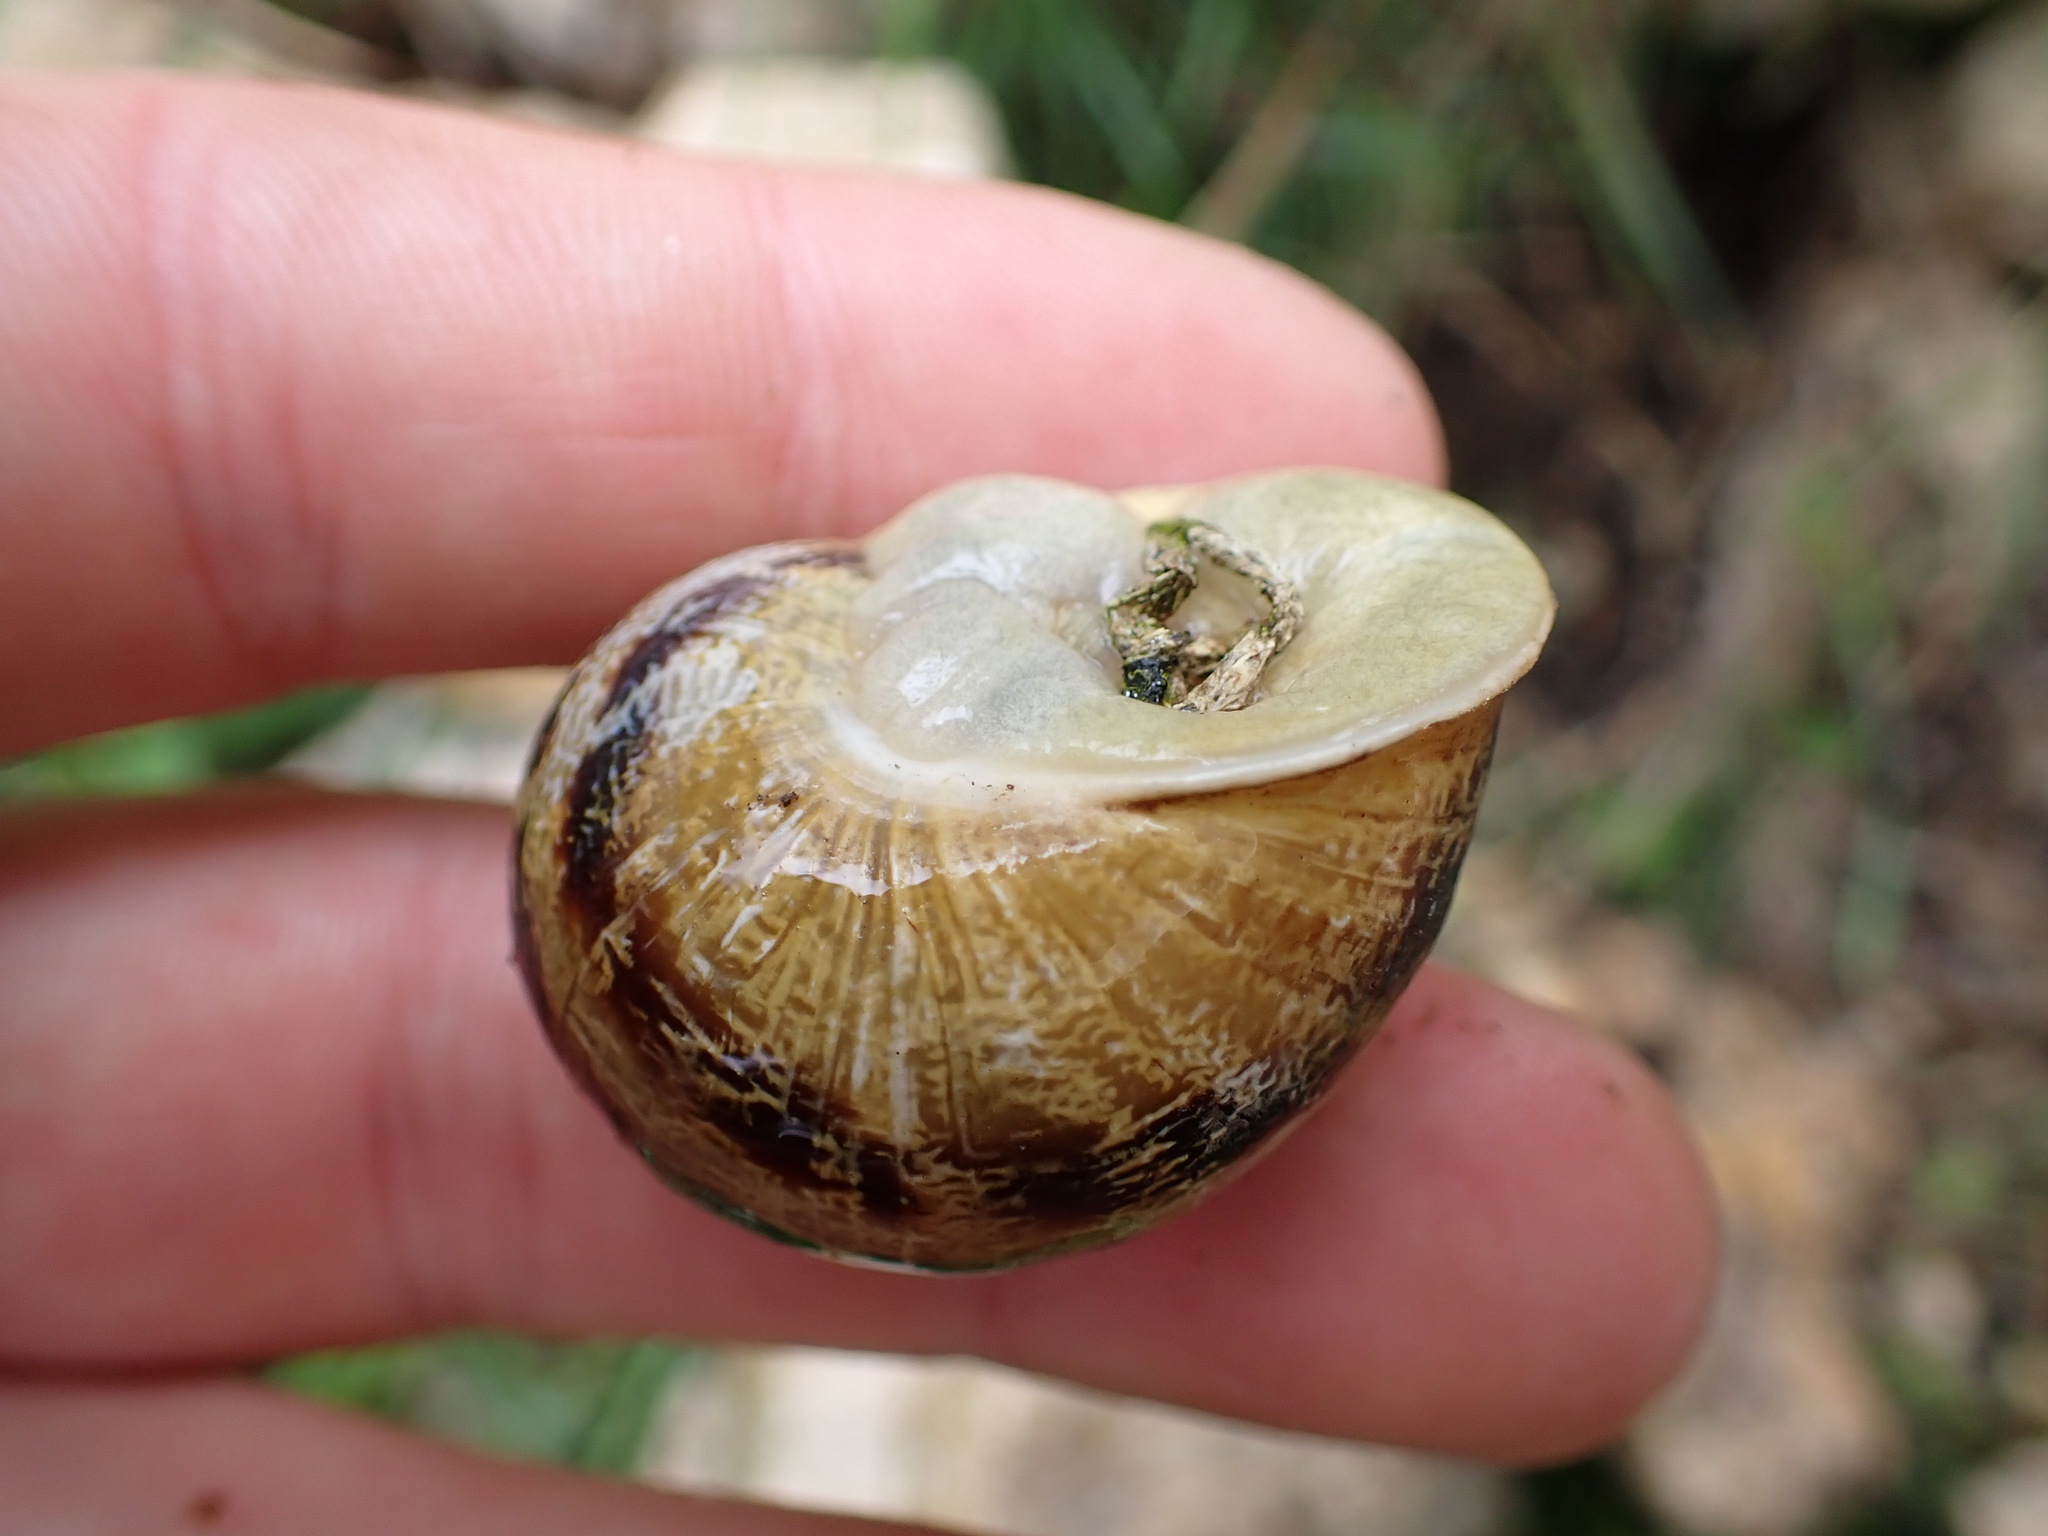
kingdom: Animalia
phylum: Mollusca
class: Gastropoda
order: Stylommatophora
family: Helicidae
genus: Cornu
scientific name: Cornu aspersum
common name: Brown garden snail
